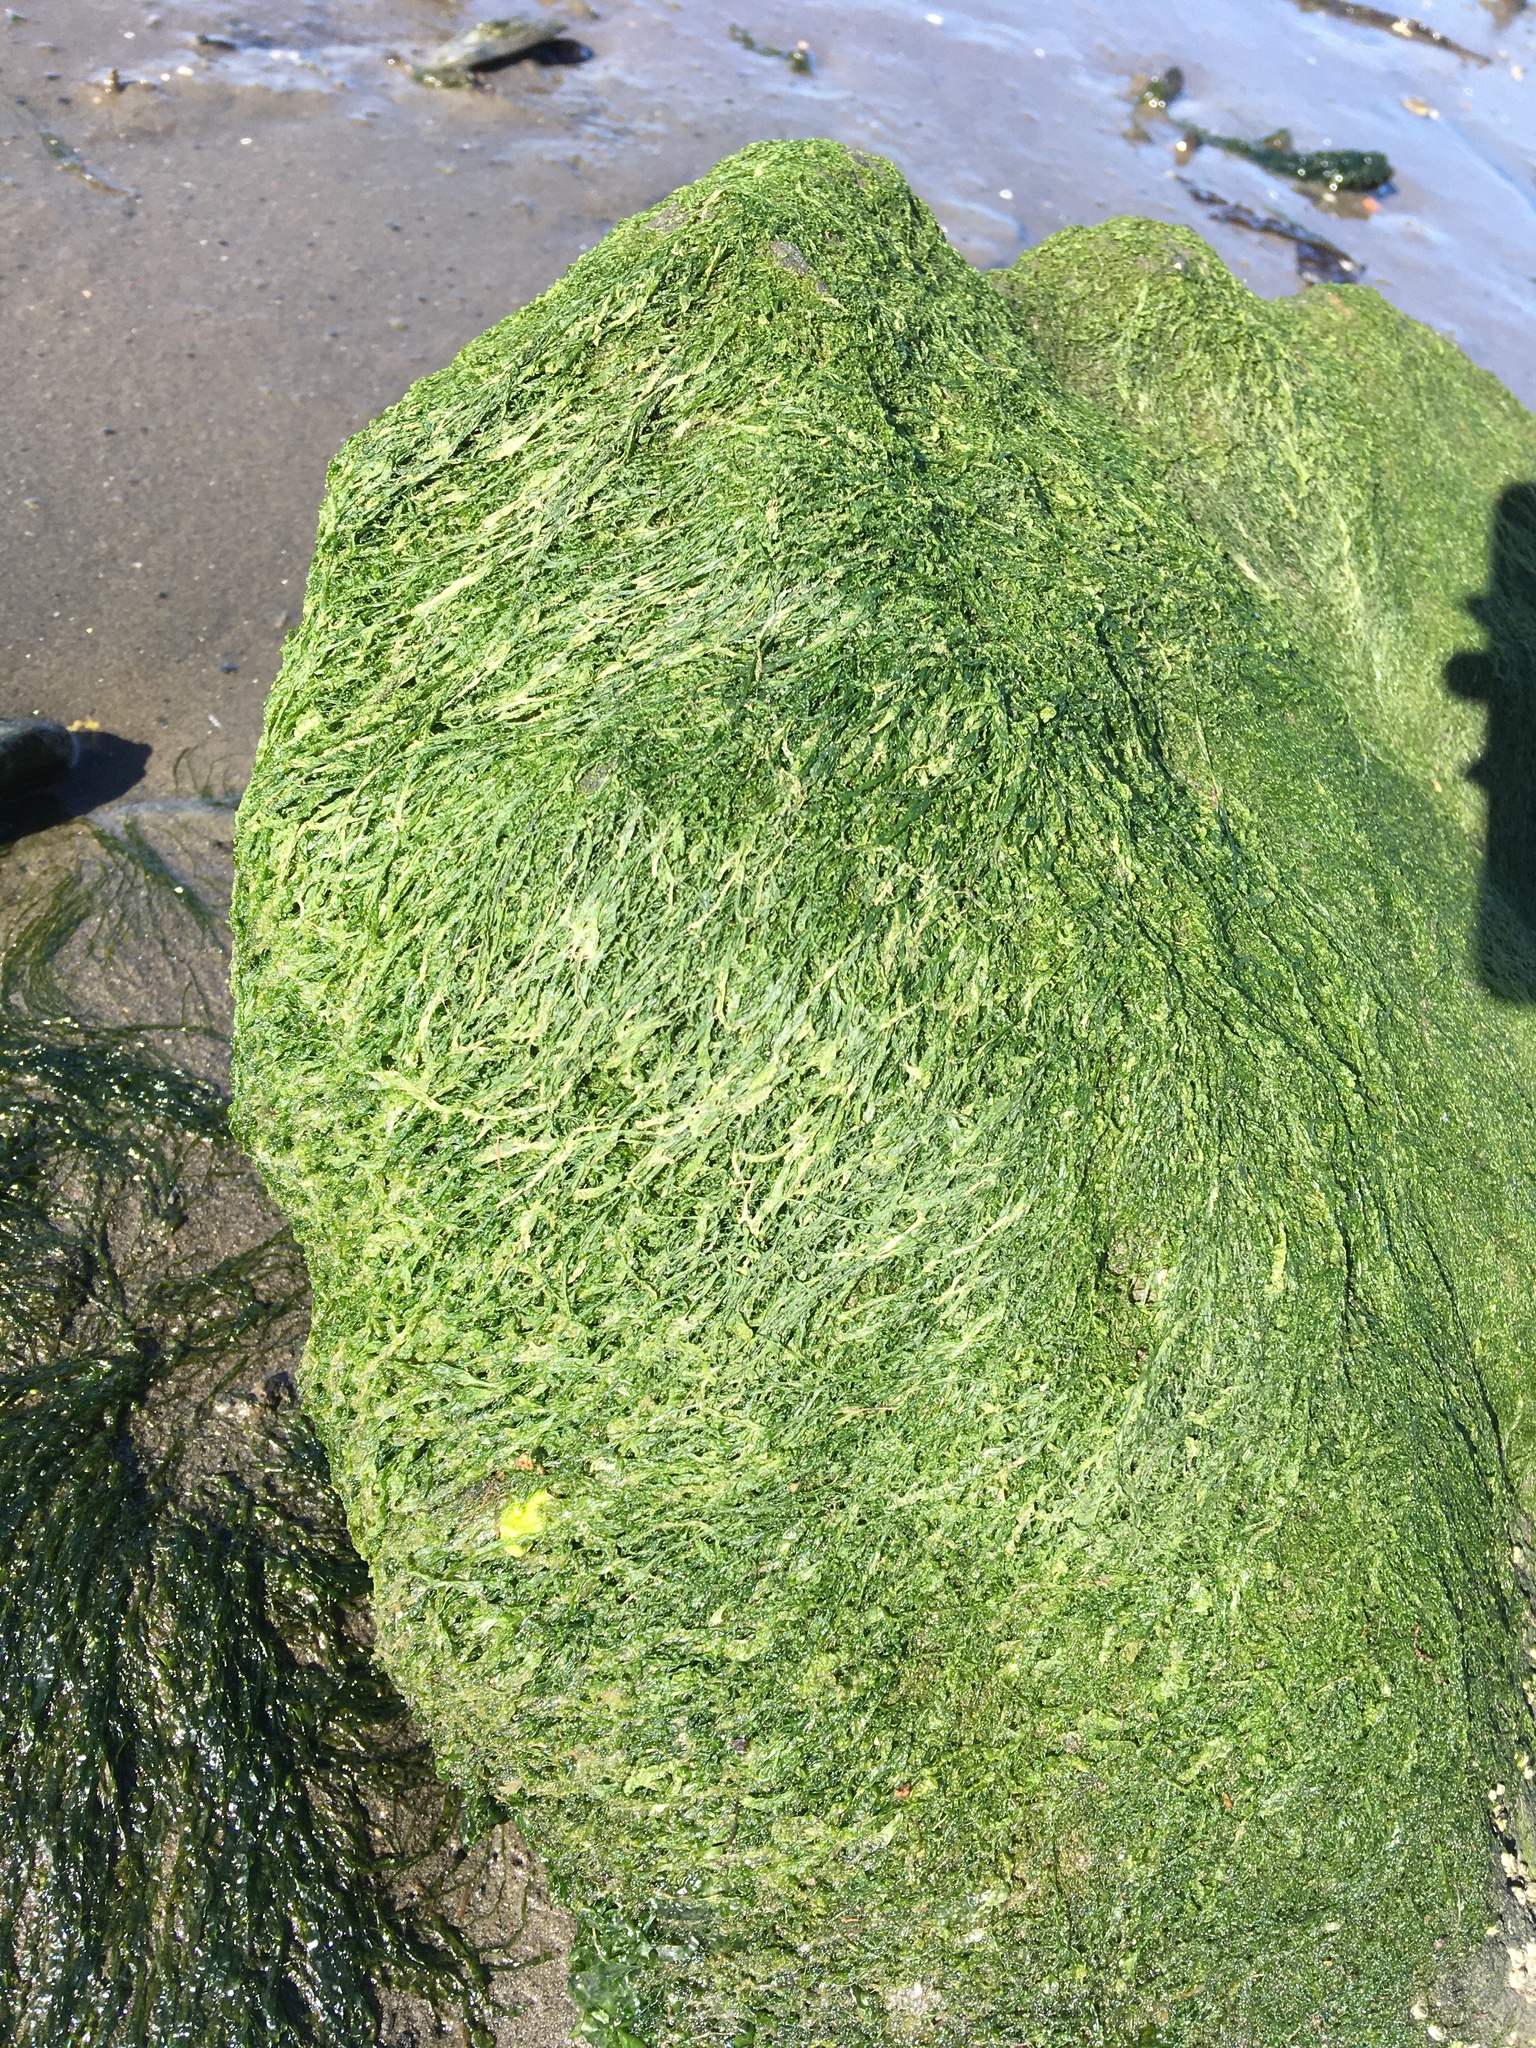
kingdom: Plantae
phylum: Chlorophyta
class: Ulvophyceae
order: Ulvales
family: Ulvaceae
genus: Ulva
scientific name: Ulva intestinalis
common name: Gut weed
